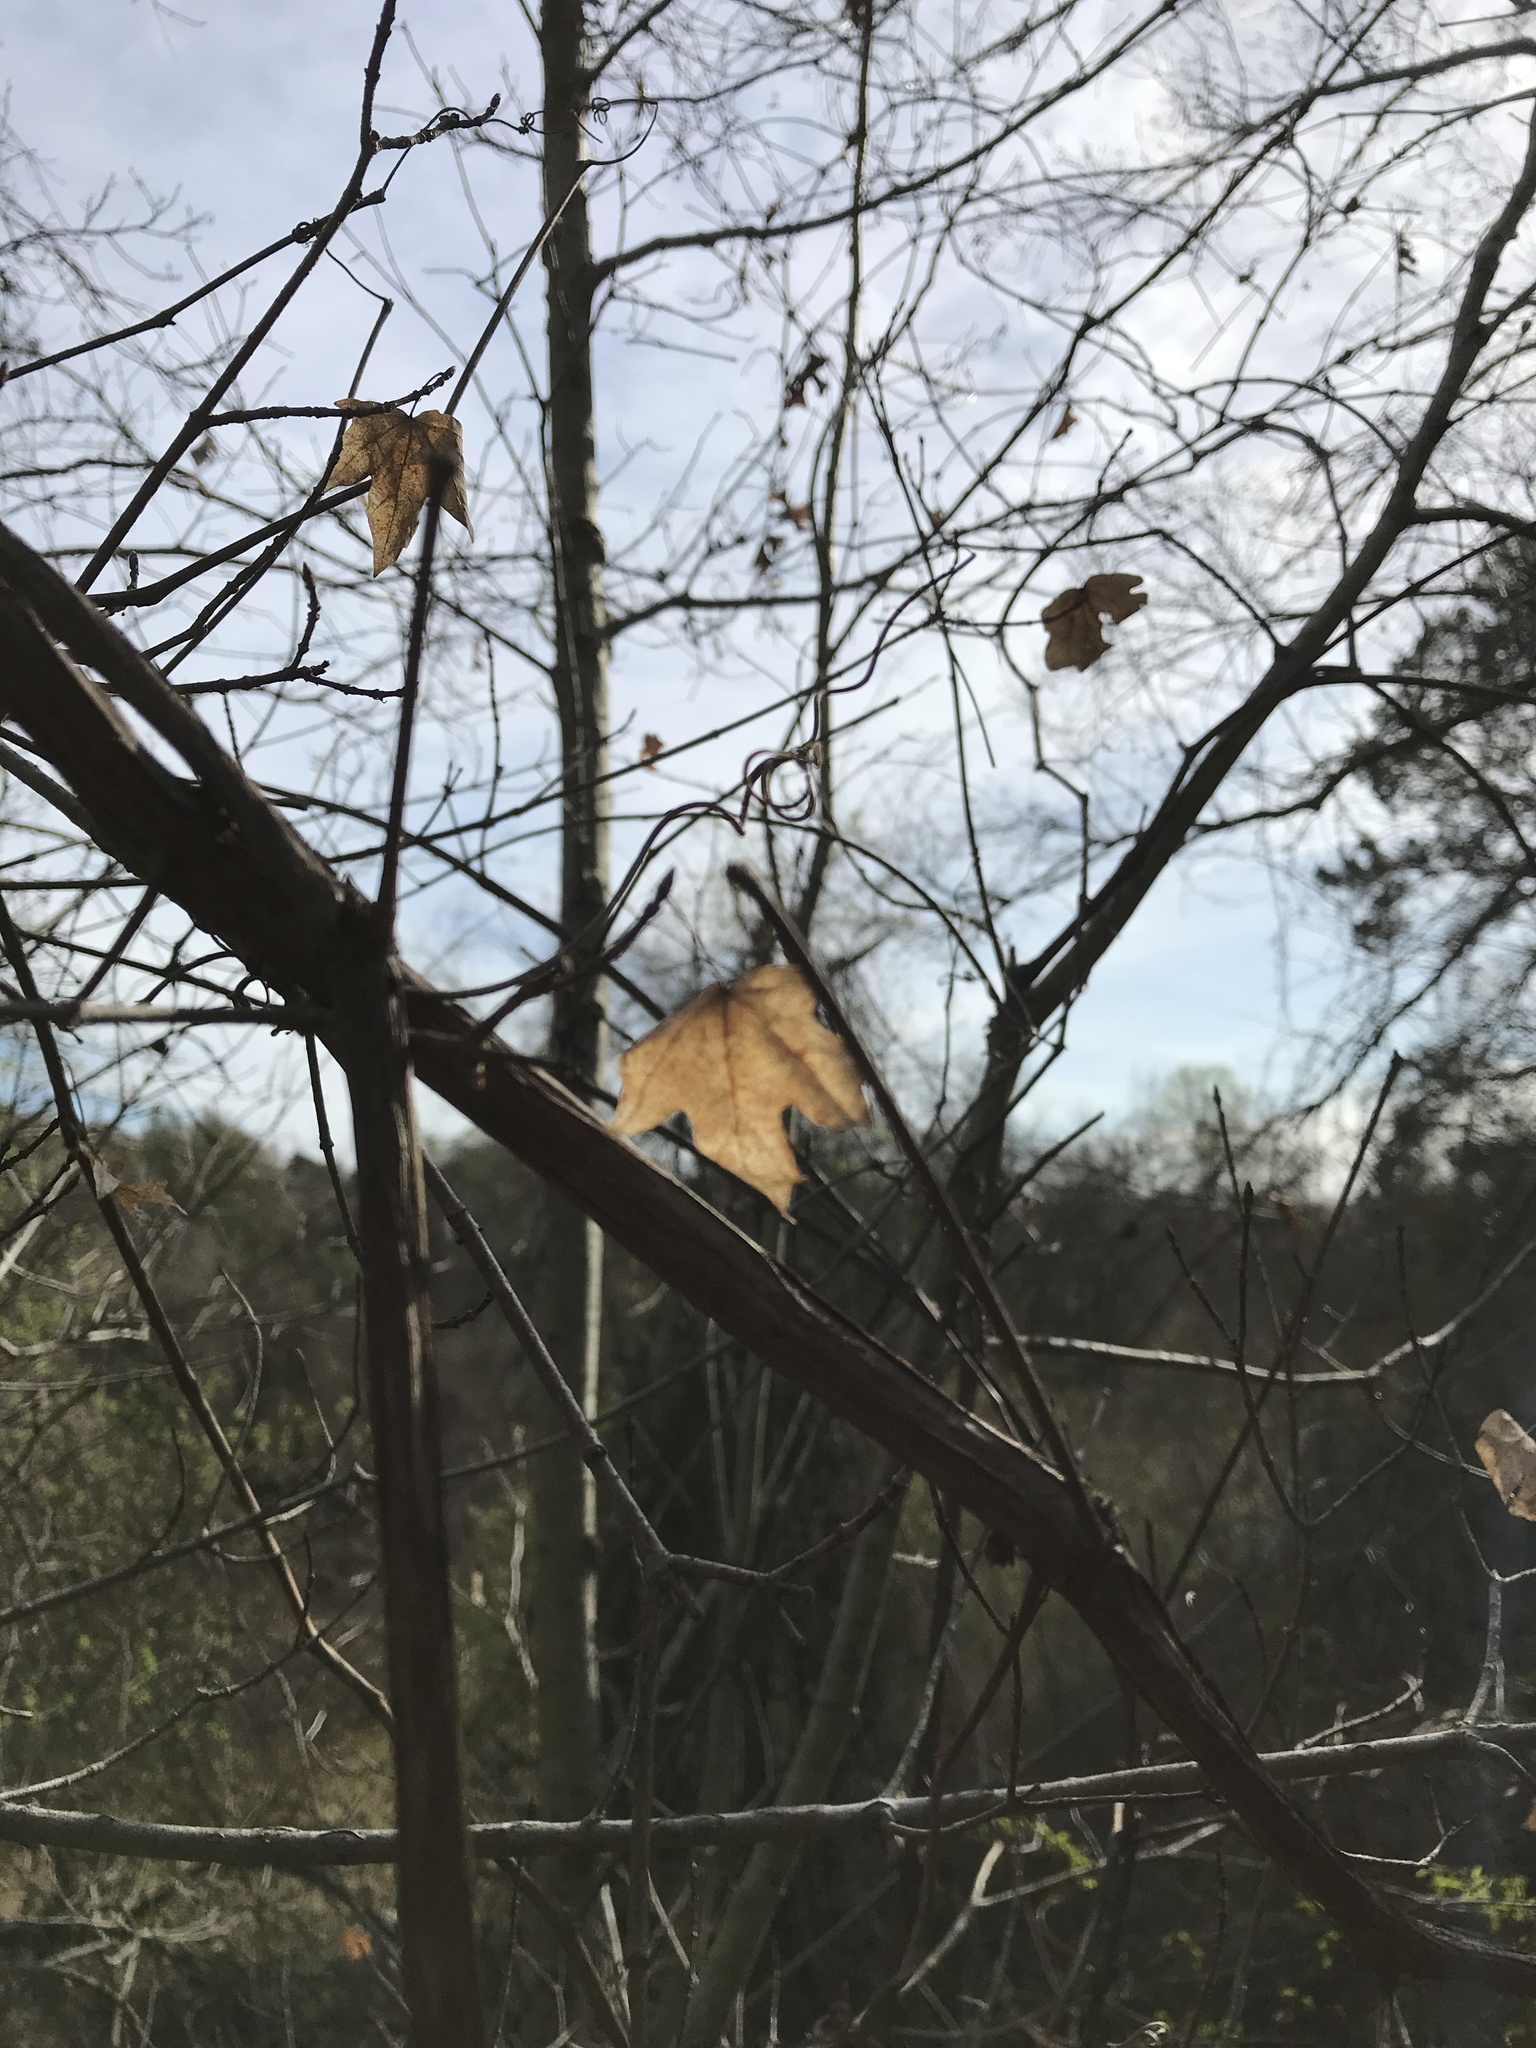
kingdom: Plantae
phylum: Tracheophyta
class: Magnoliopsida
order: Sapindales
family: Sapindaceae
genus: Acer
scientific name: Acer grandidentatum
